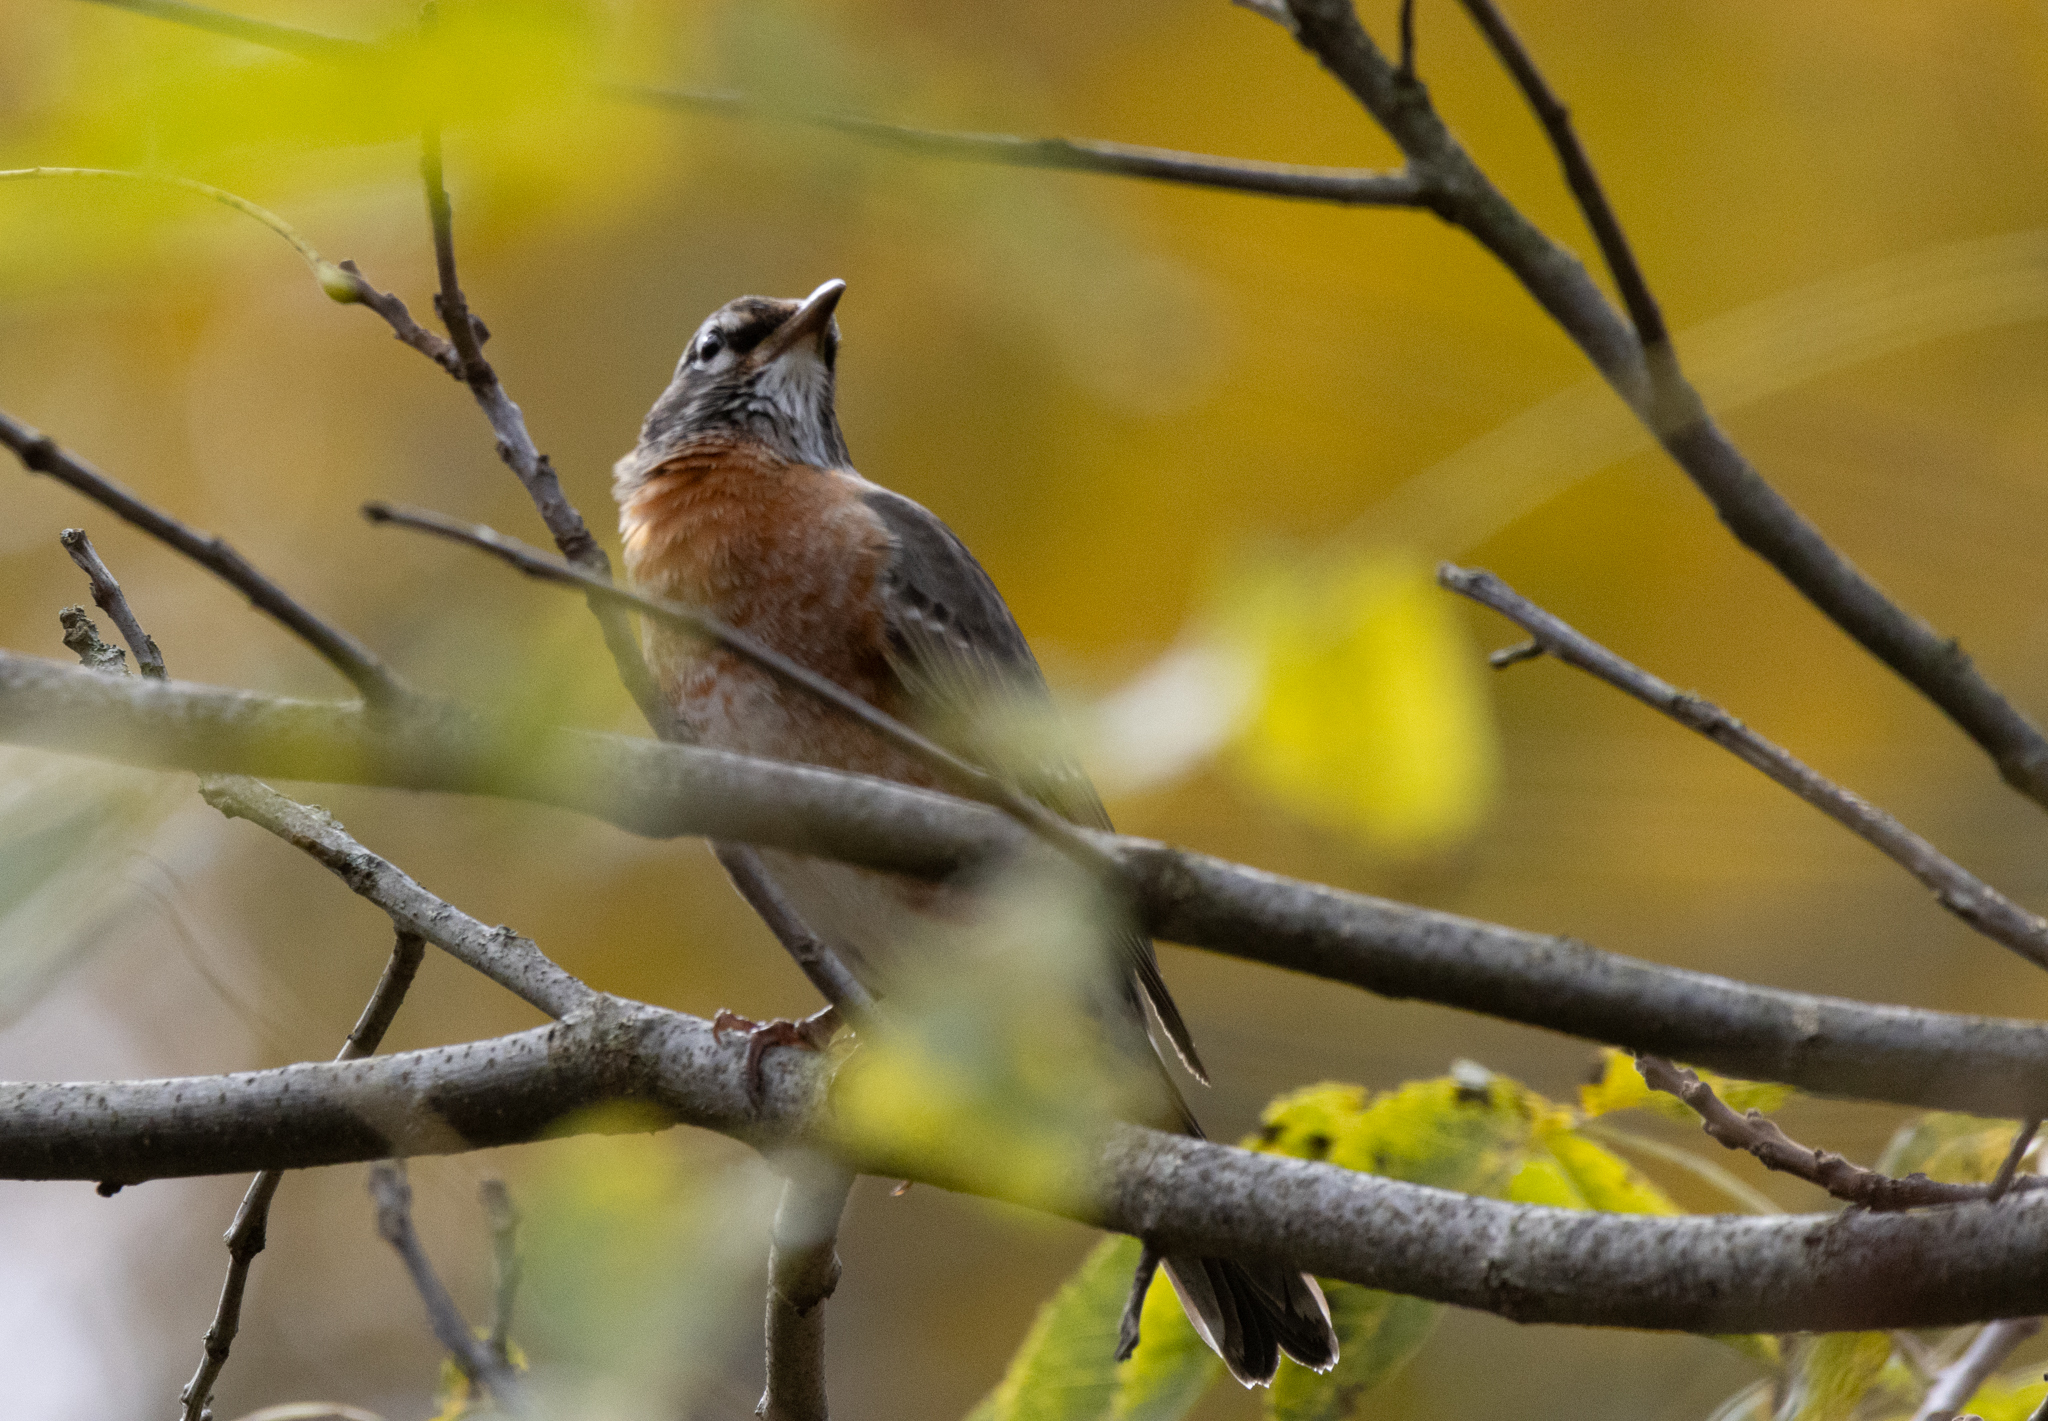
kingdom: Animalia
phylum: Chordata
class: Aves
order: Passeriformes
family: Turdidae
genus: Turdus
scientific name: Turdus migratorius
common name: American robin
